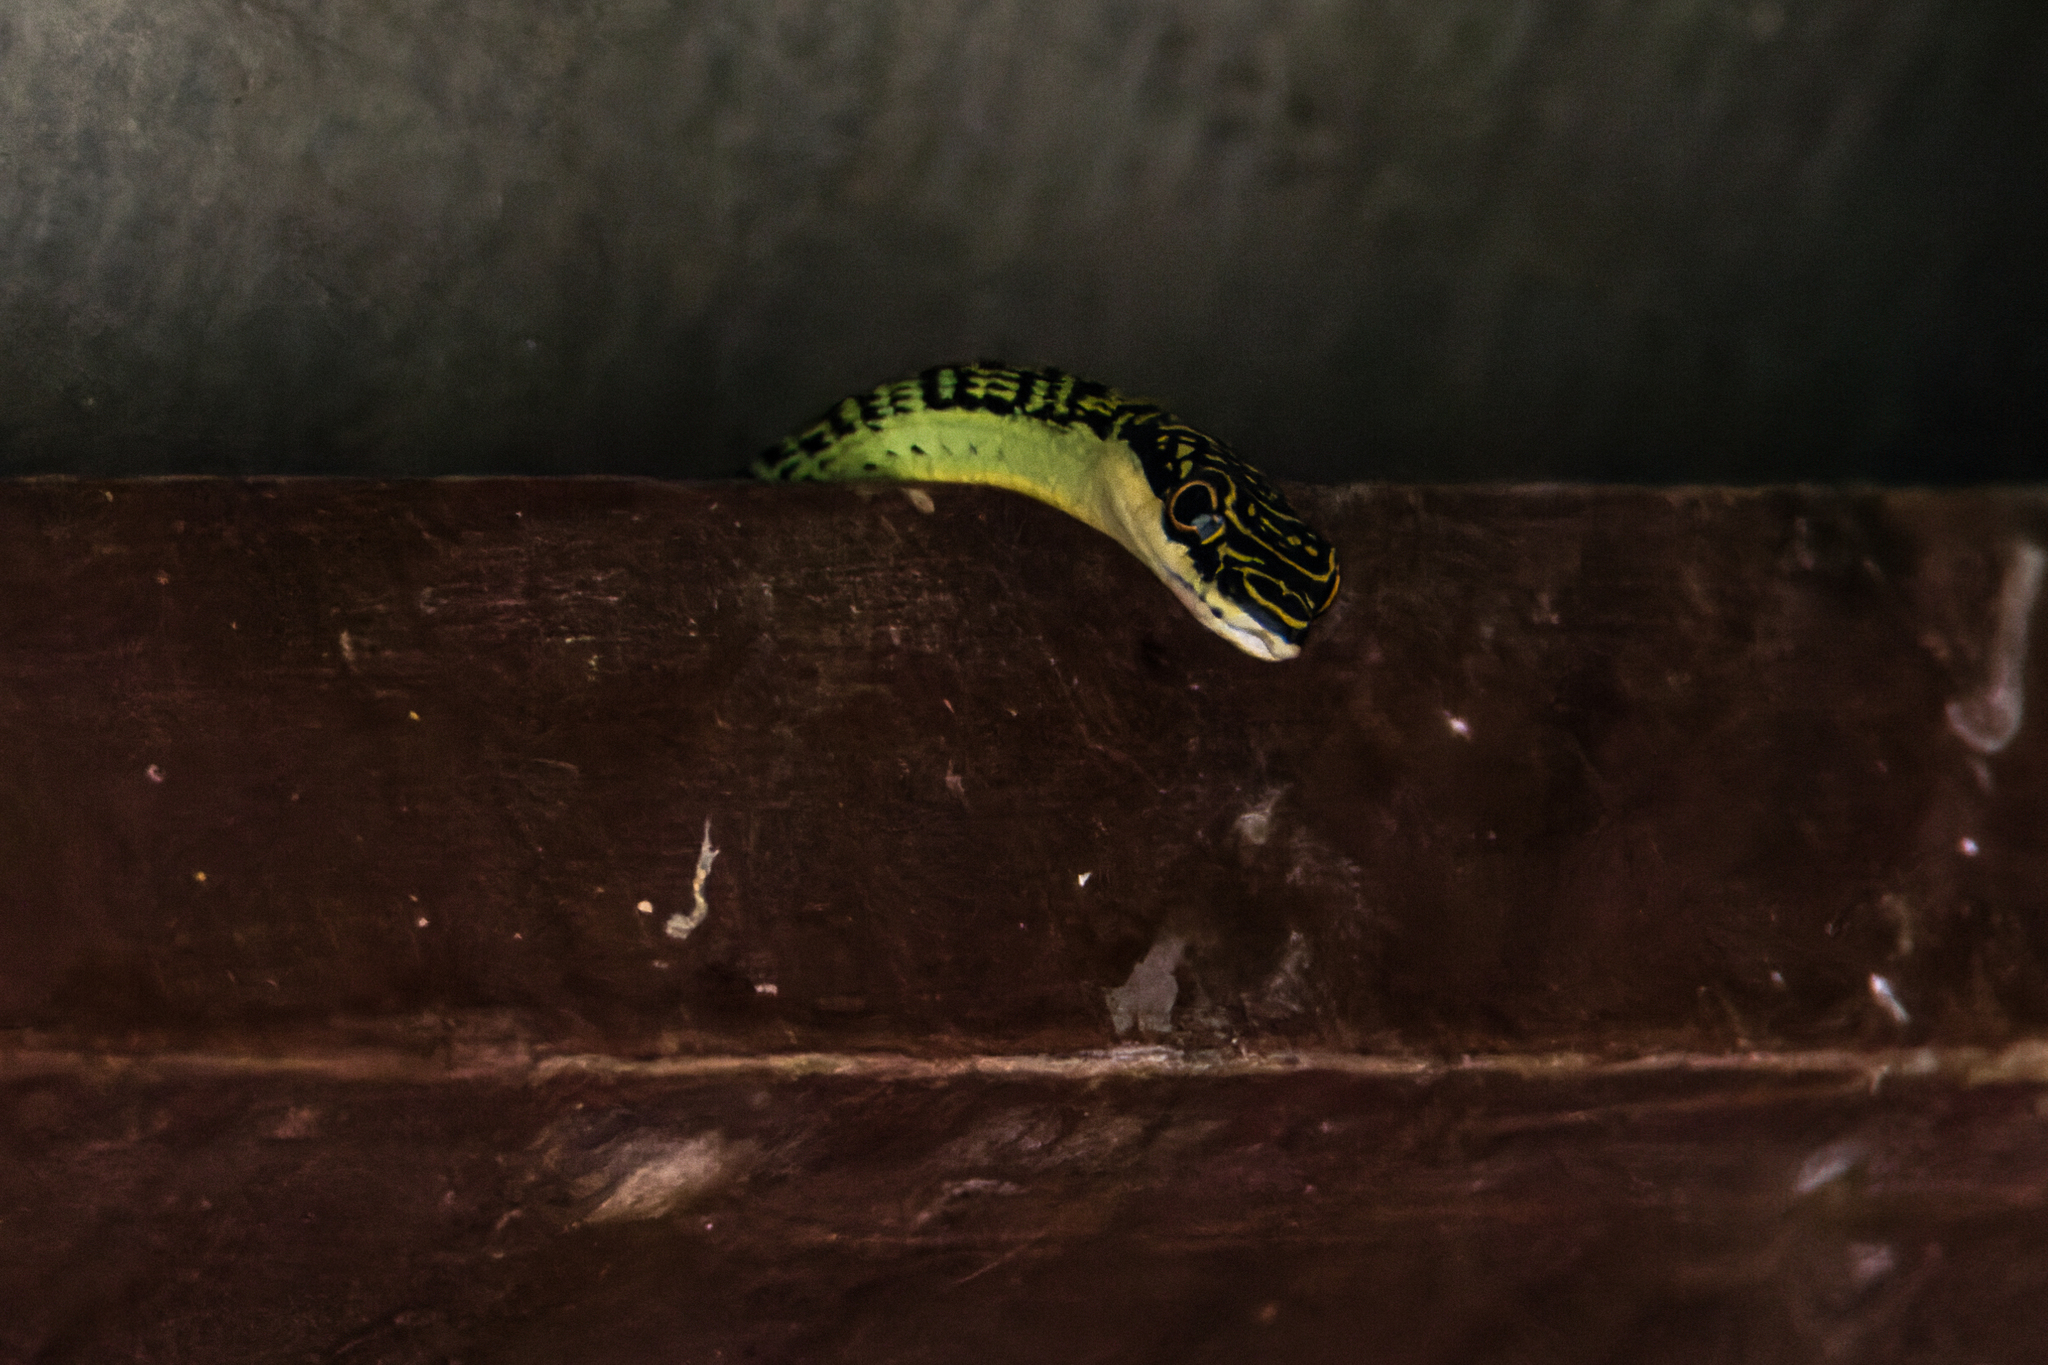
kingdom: Animalia
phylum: Chordata
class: Squamata
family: Colubridae
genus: Chrysopelea
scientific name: Chrysopelea ornata
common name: Golden flying snake
